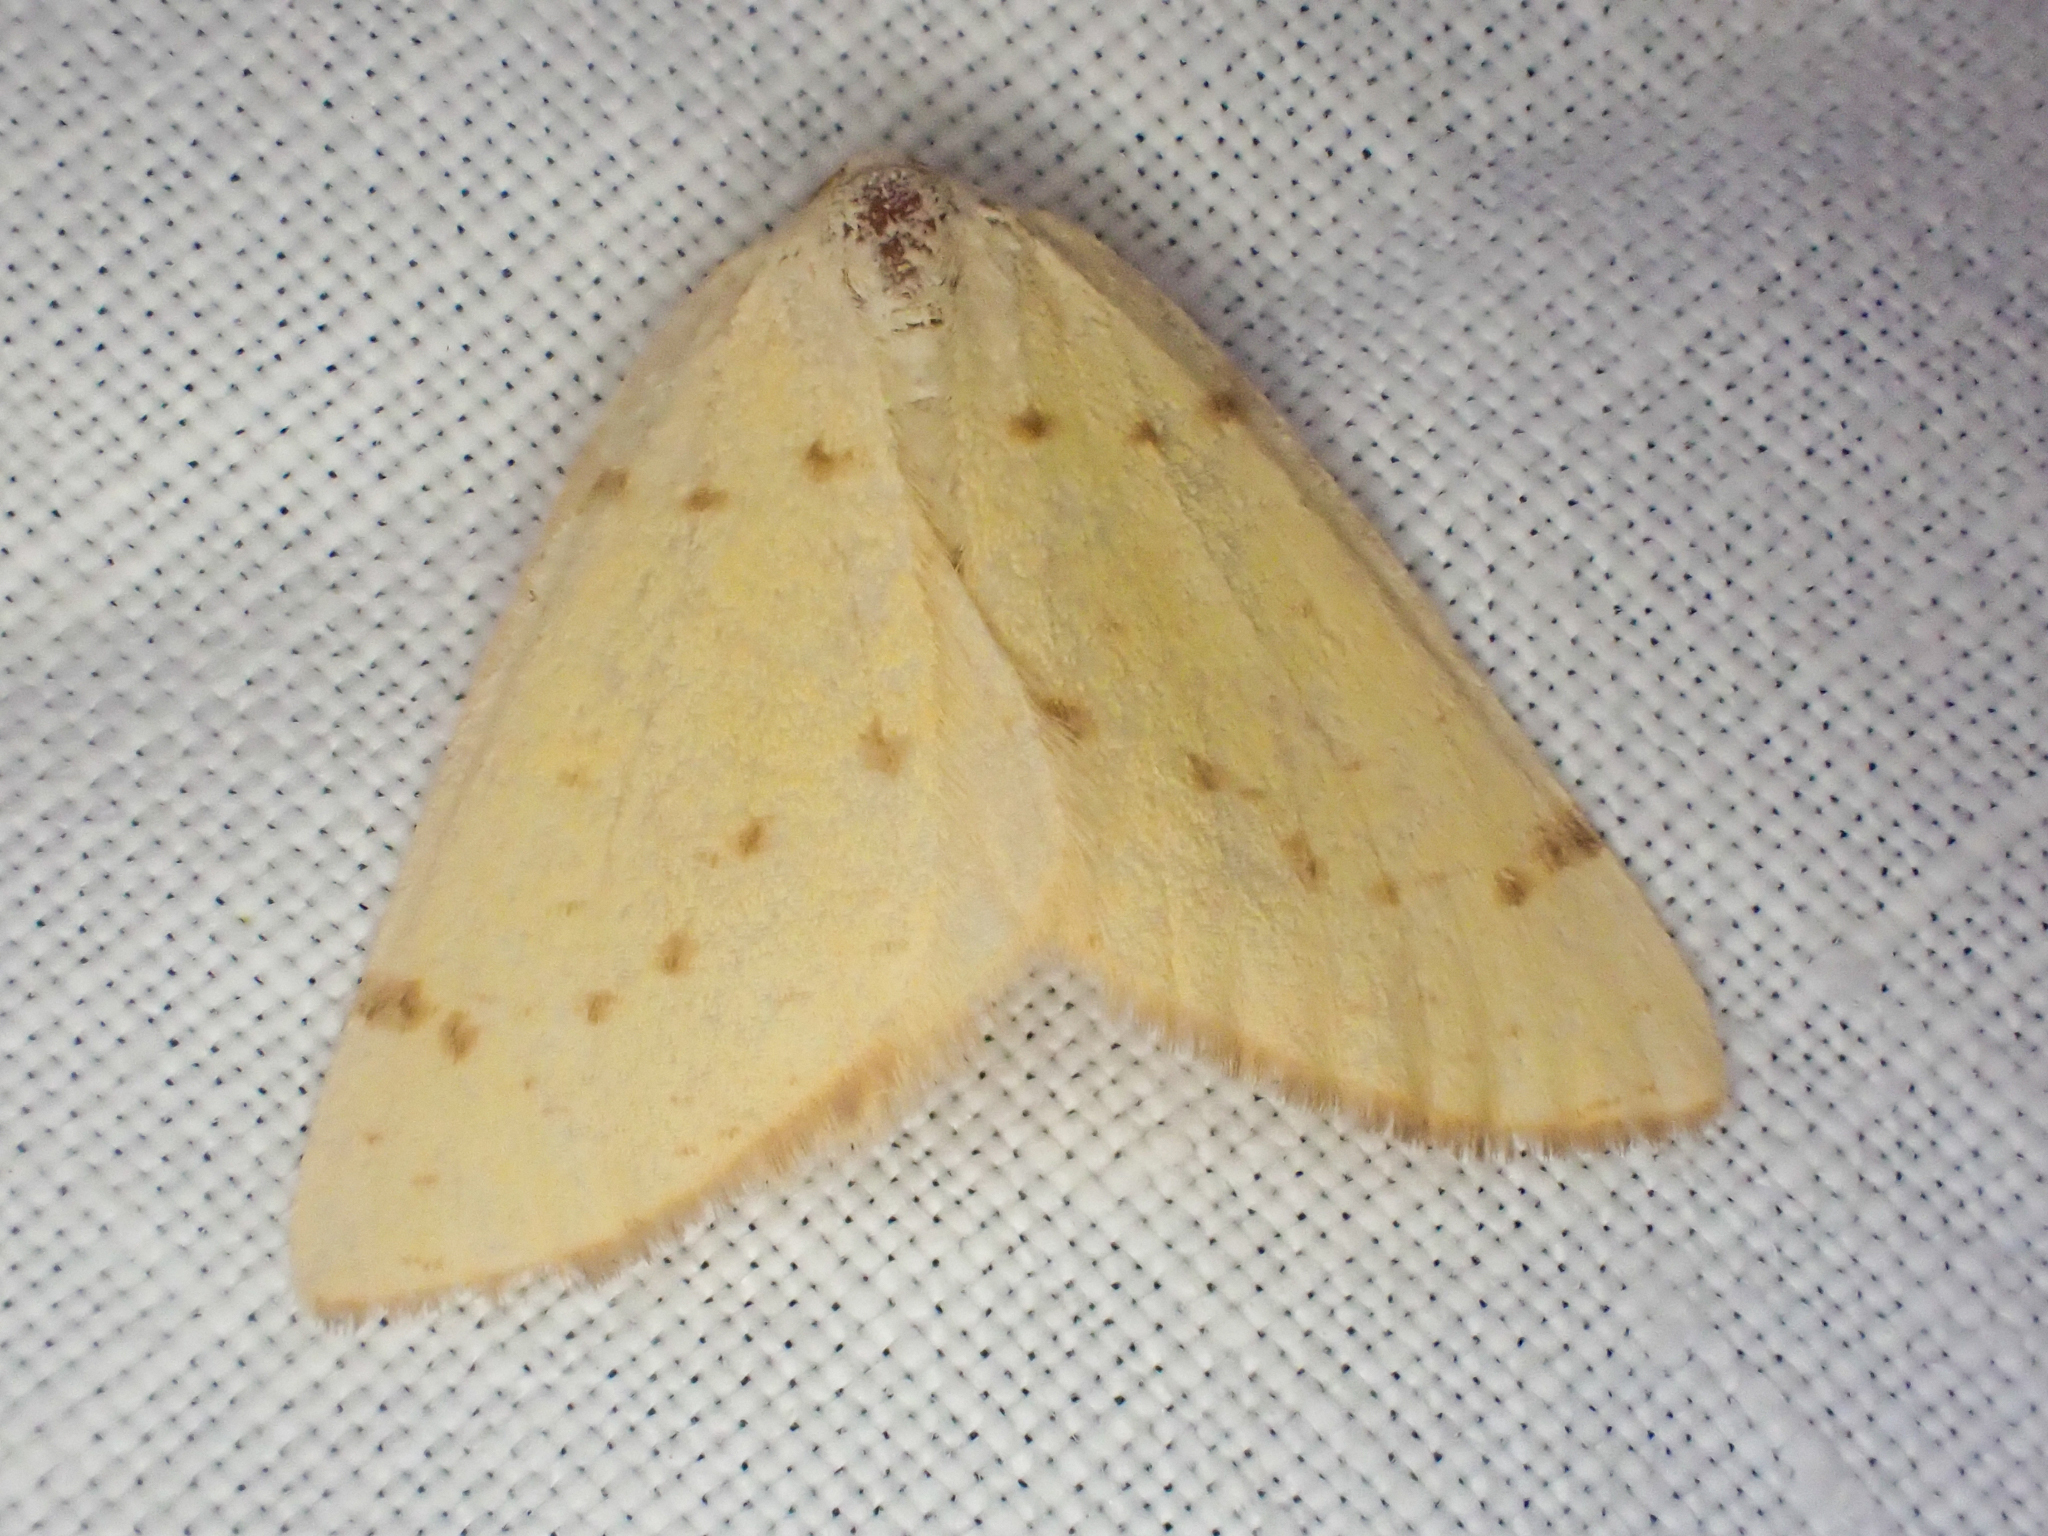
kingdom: Animalia
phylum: Arthropoda
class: Insecta
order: Lepidoptera
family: Geometridae
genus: Hesperumia
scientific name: Hesperumia sulphuraria
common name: Sulphur moth
